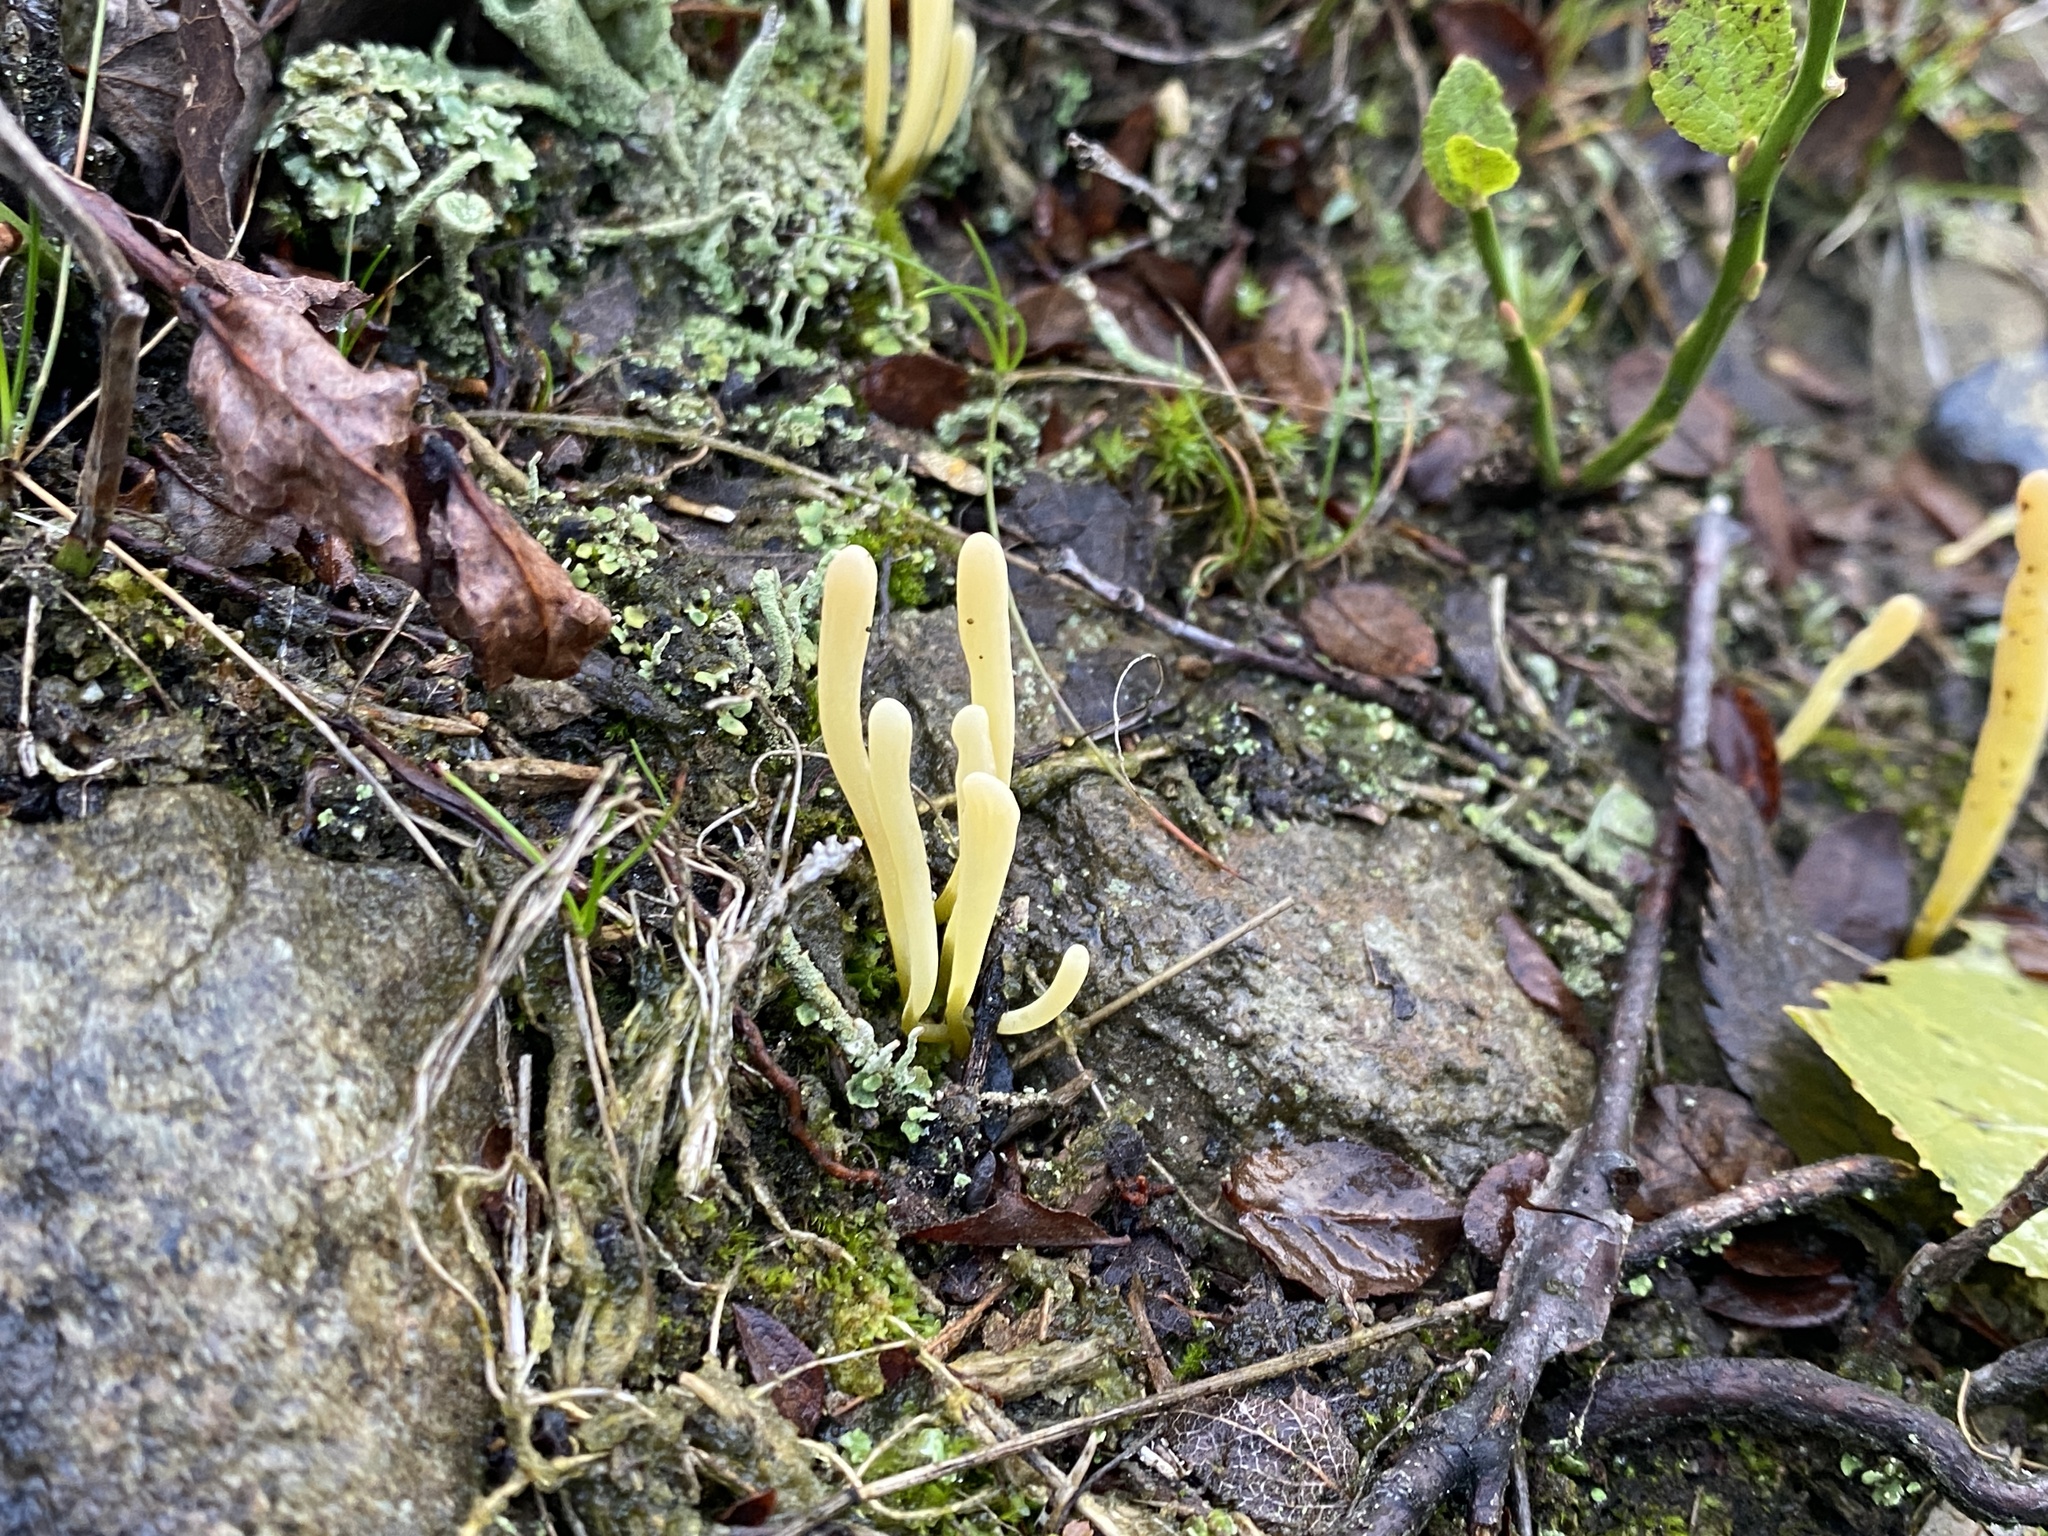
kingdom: Fungi
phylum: Basidiomycota
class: Agaricomycetes
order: Agaricales
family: Clavariaceae
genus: Clavaria
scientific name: Clavaria argillacea
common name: Moor club
